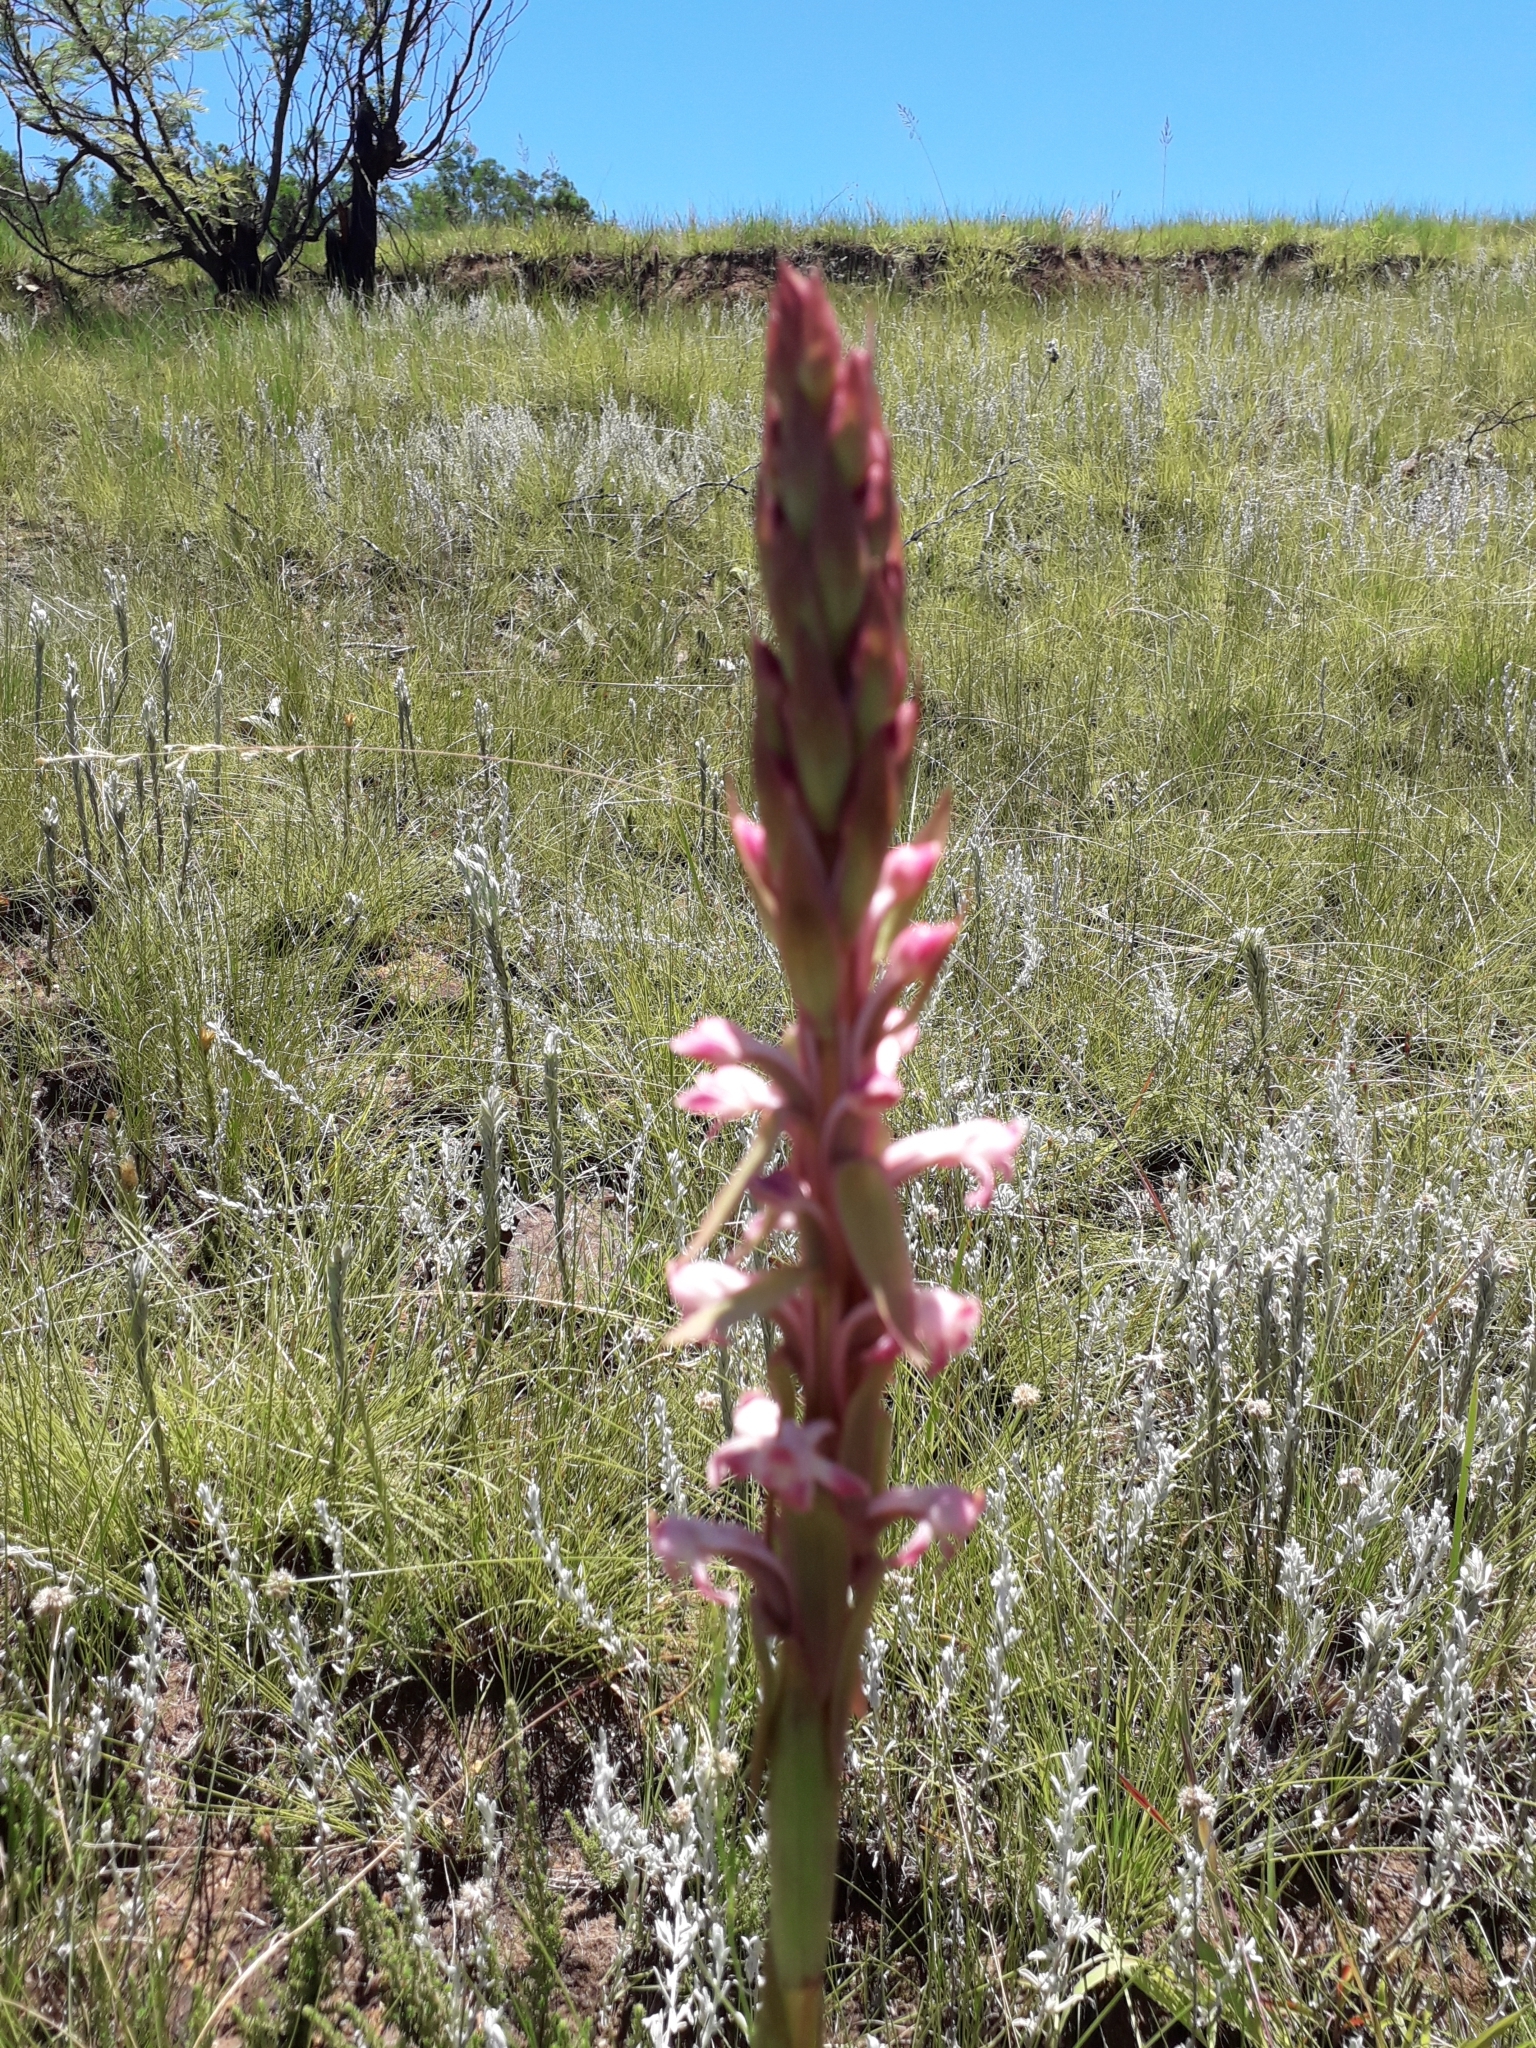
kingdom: Plantae
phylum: Tracheophyta
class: Liliopsida
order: Asparagales
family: Orchidaceae
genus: Satyrium
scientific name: Satyrium longicauda
